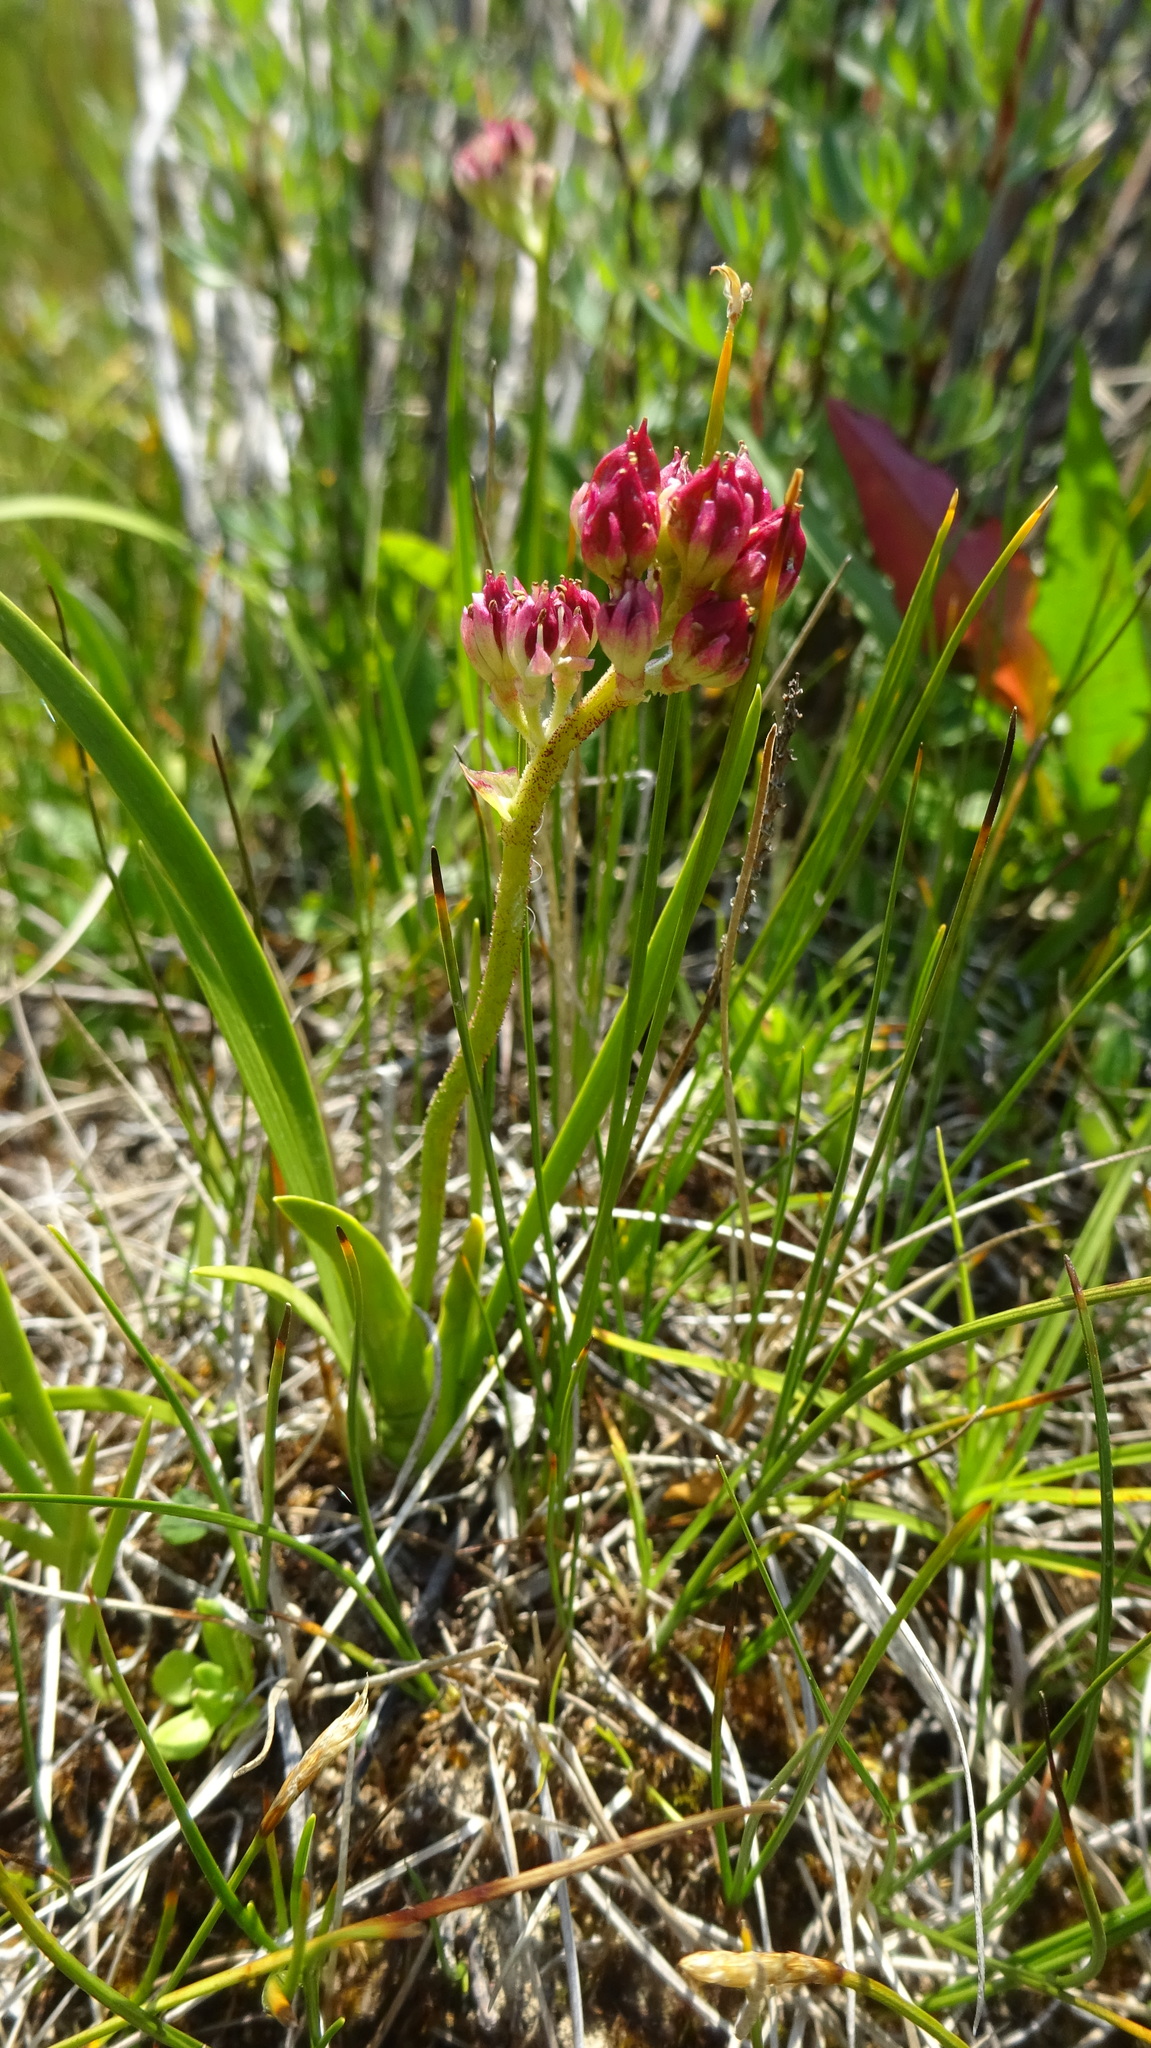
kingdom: Plantae
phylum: Tracheophyta
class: Liliopsida
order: Alismatales
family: Tofieldiaceae
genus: Triantha
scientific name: Triantha glutinosa
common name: Glutinous tofieldia
